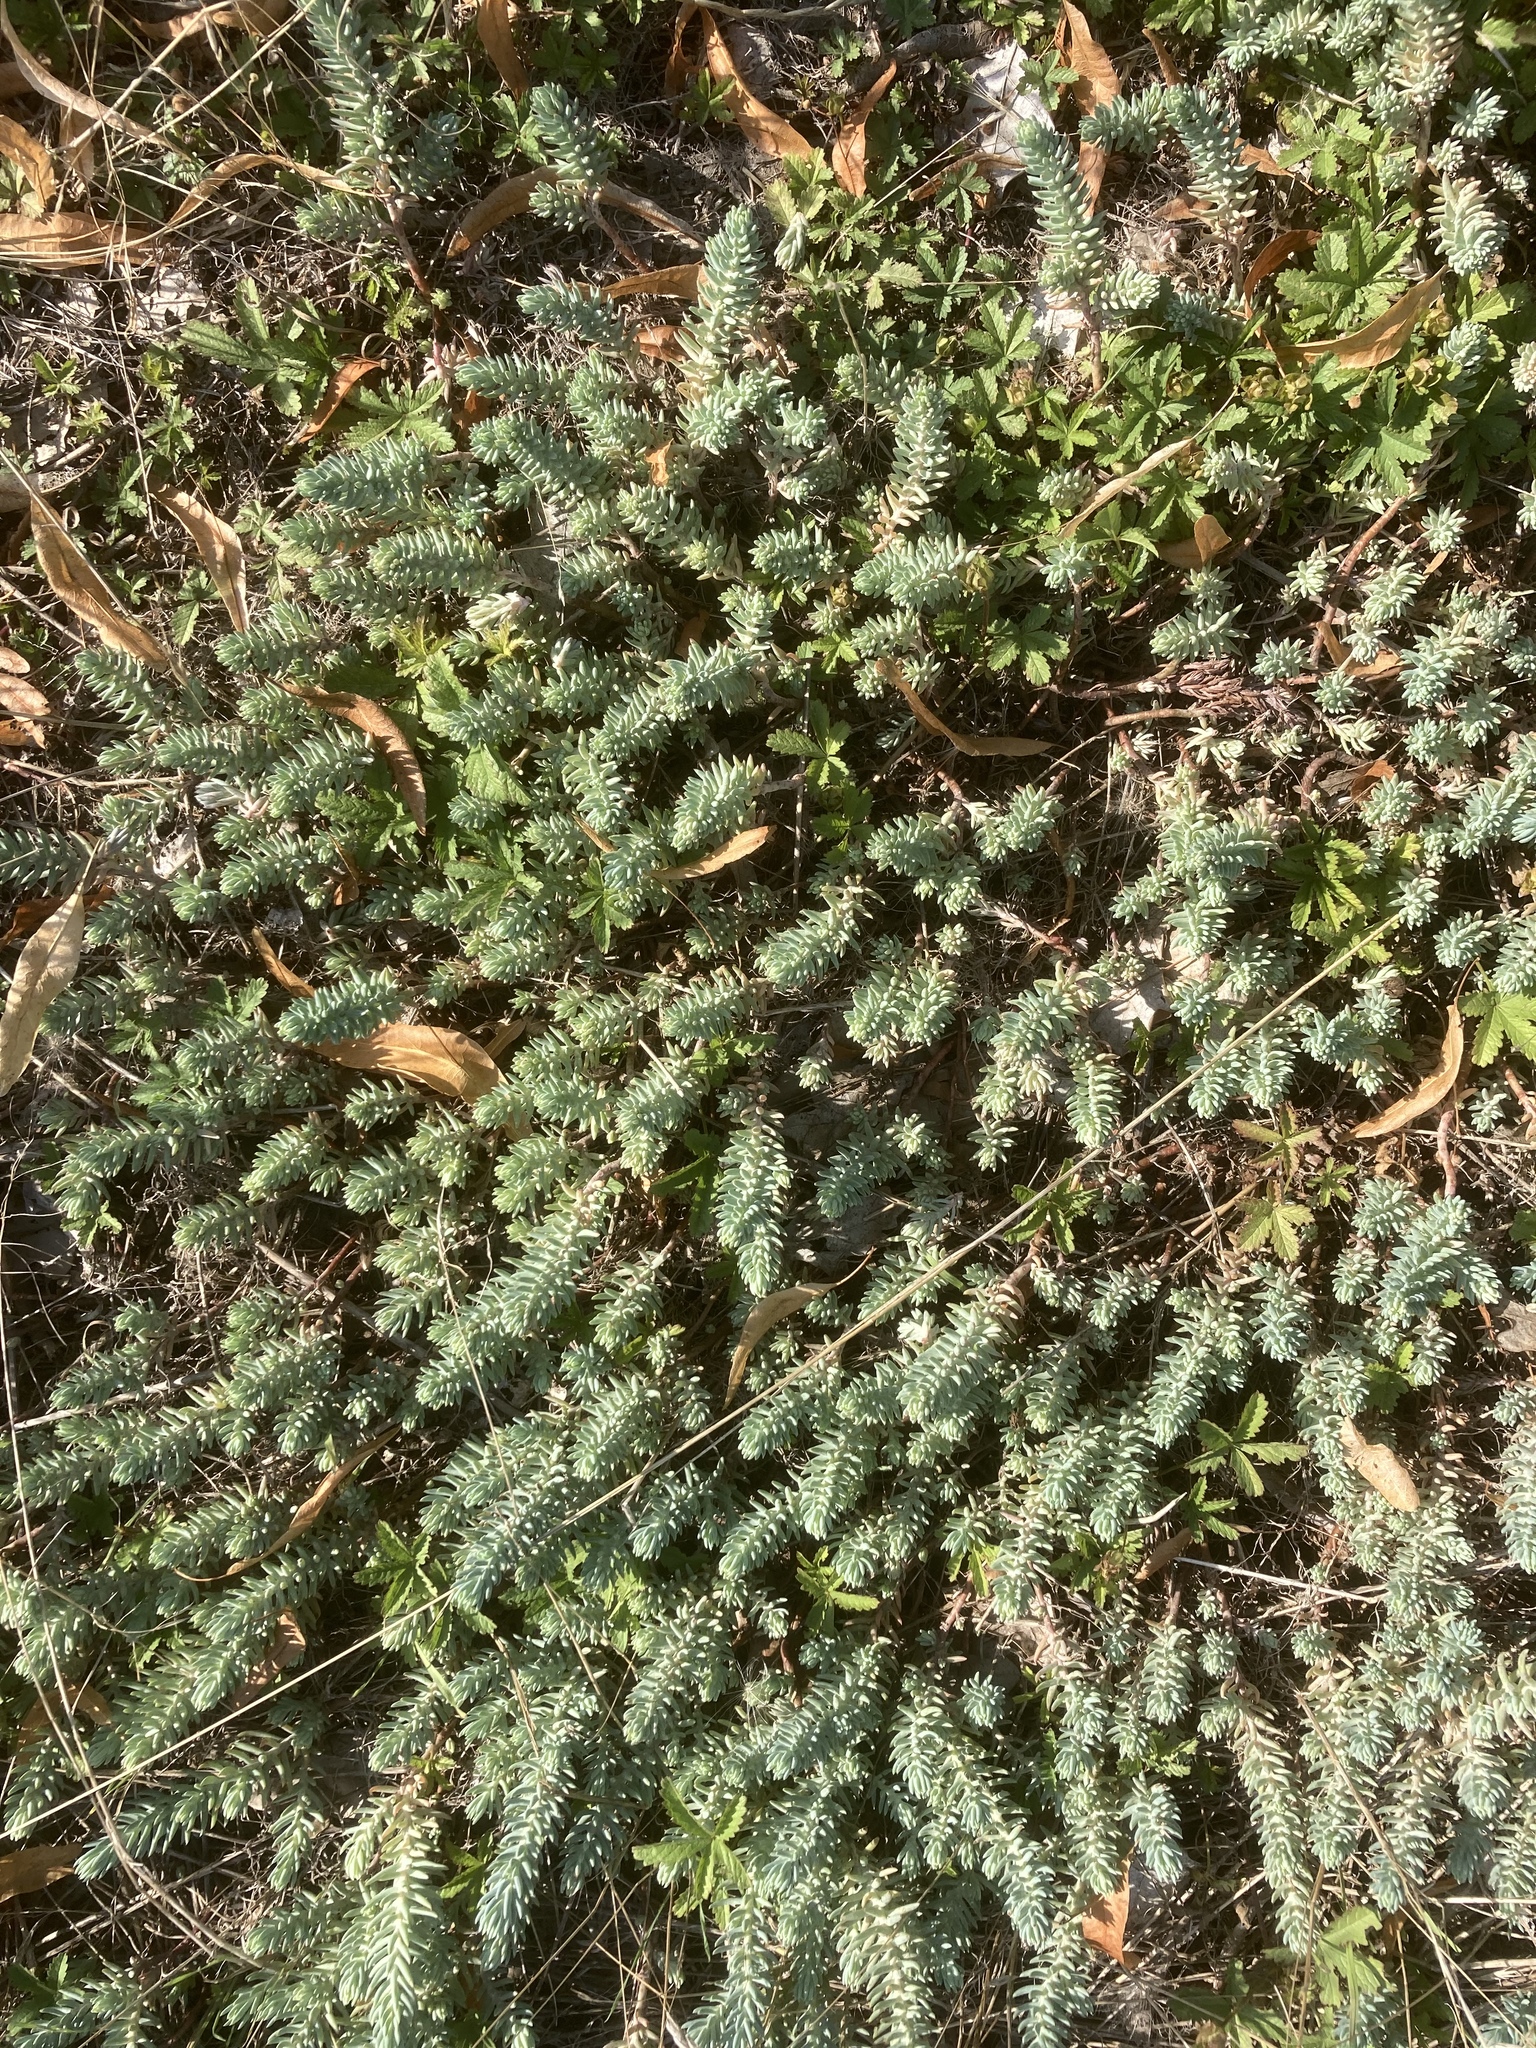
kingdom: Plantae
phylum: Tracheophyta
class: Magnoliopsida
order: Saxifragales
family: Crassulaceae
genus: Petrosedum
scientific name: Petrosedum rupestre
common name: Jenny's stonecrop
